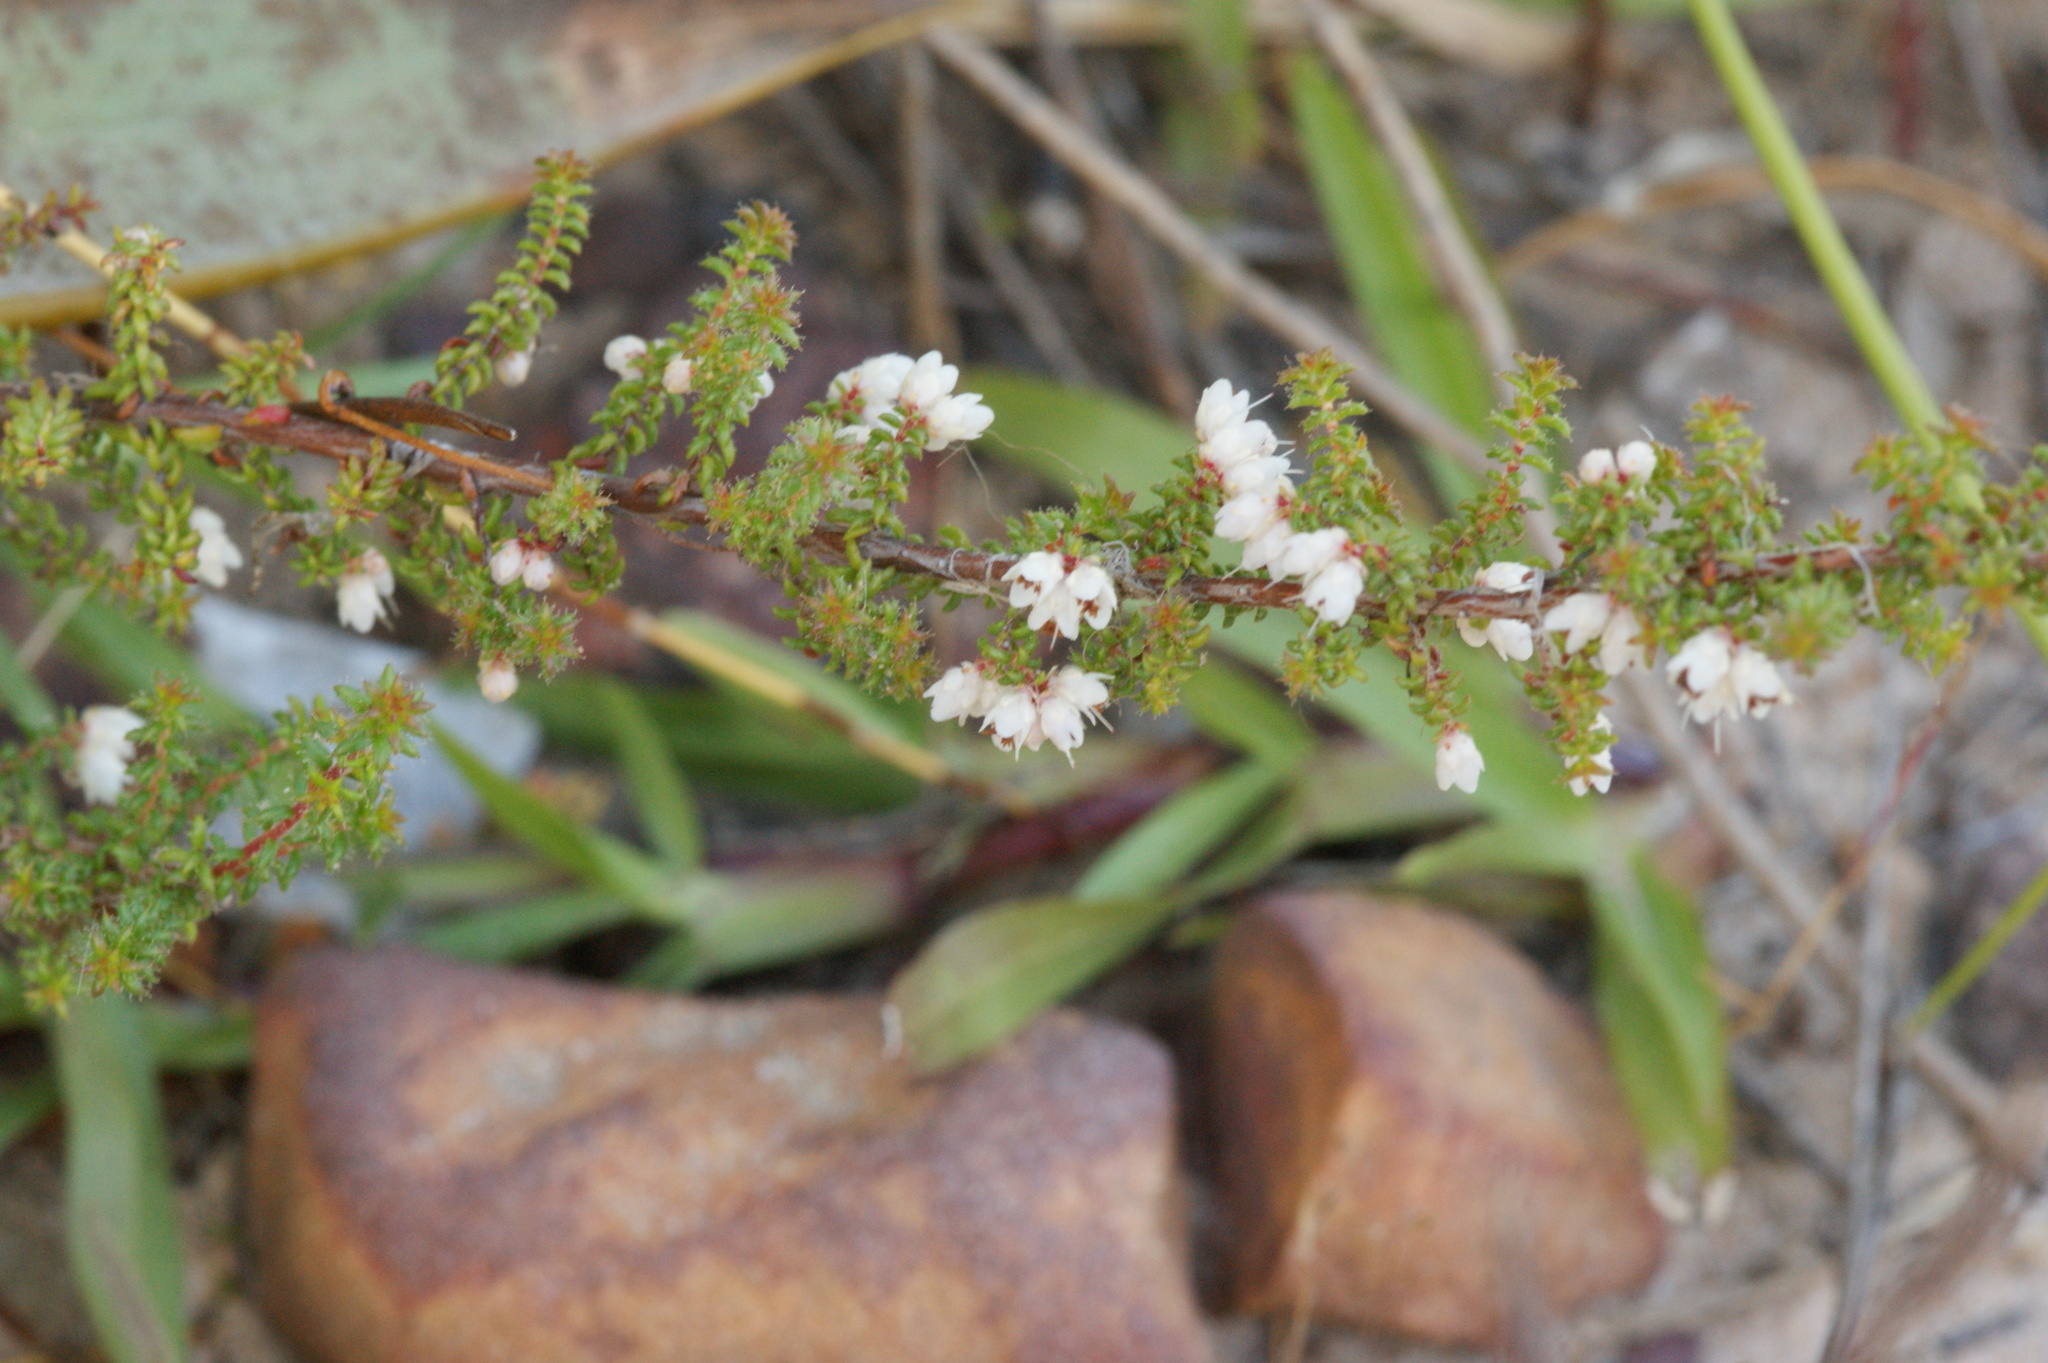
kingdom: Plantae
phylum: Tracheophyta
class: Magnoliopsida
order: Ericales
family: Ericaceae
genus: Erica
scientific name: Erica eremioides
